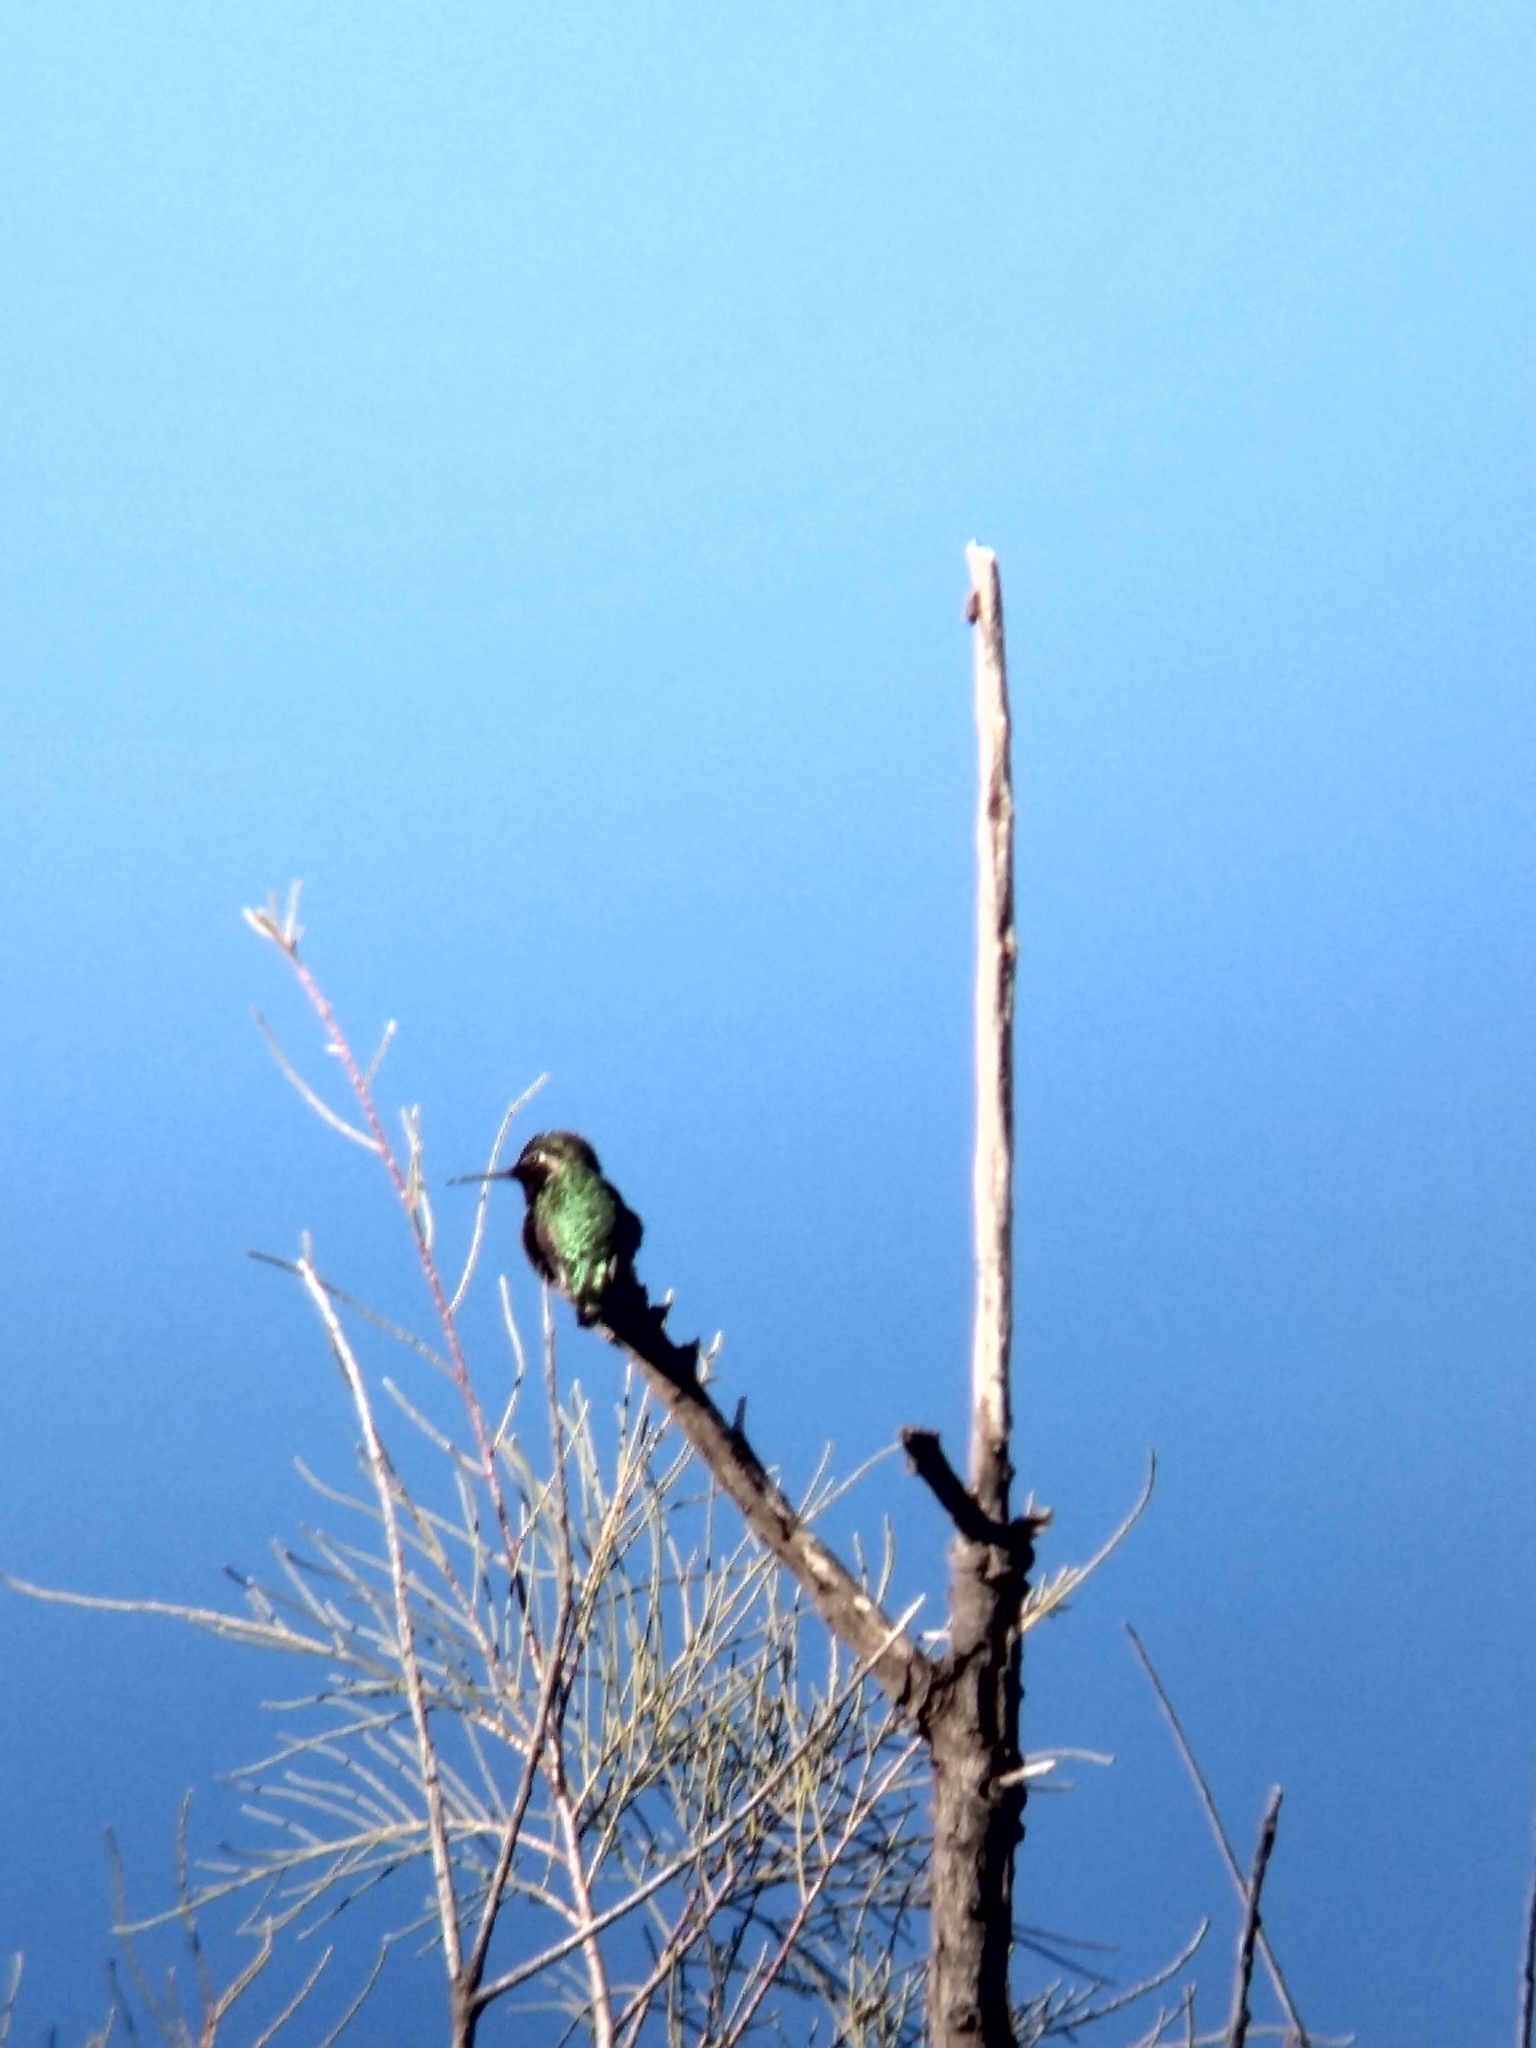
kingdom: Animalia
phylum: Chordata
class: Aves
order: Apodiformes
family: Trochilidae
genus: Calypte
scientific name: Calypte anna
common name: Anna's hummingbird
